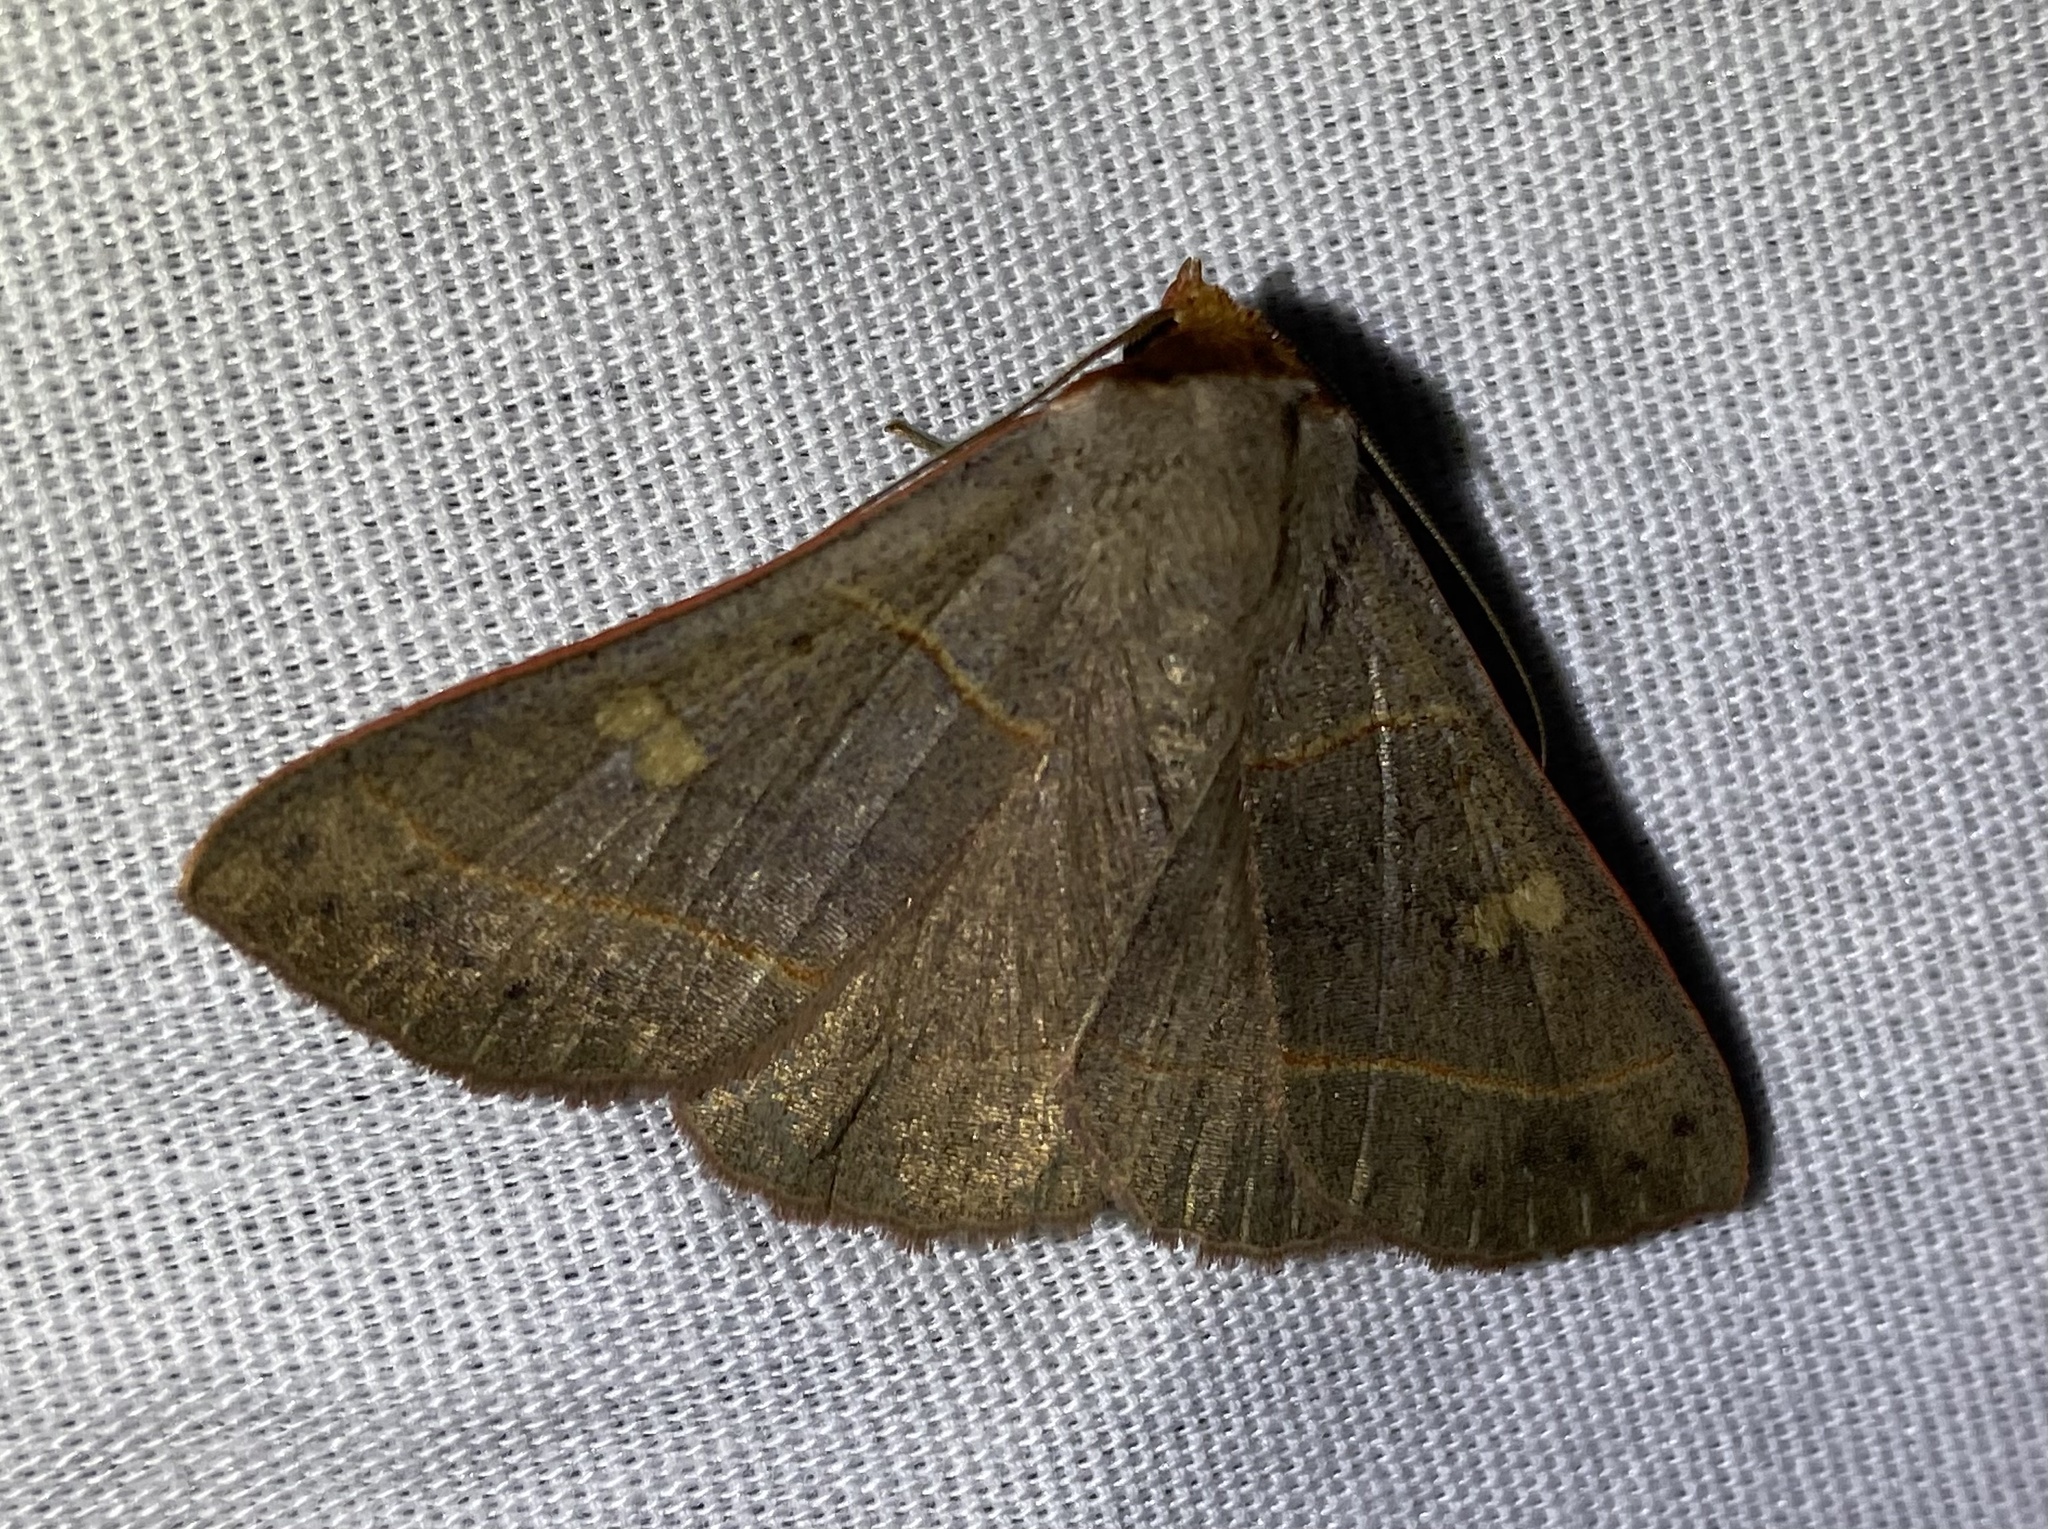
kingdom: Animalia
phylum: Arthropoda
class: Insecta
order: Lepidoptera
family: Erebidae
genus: Panopoda
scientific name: Panopoda rufimargo
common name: Red-lined panopoda moth
